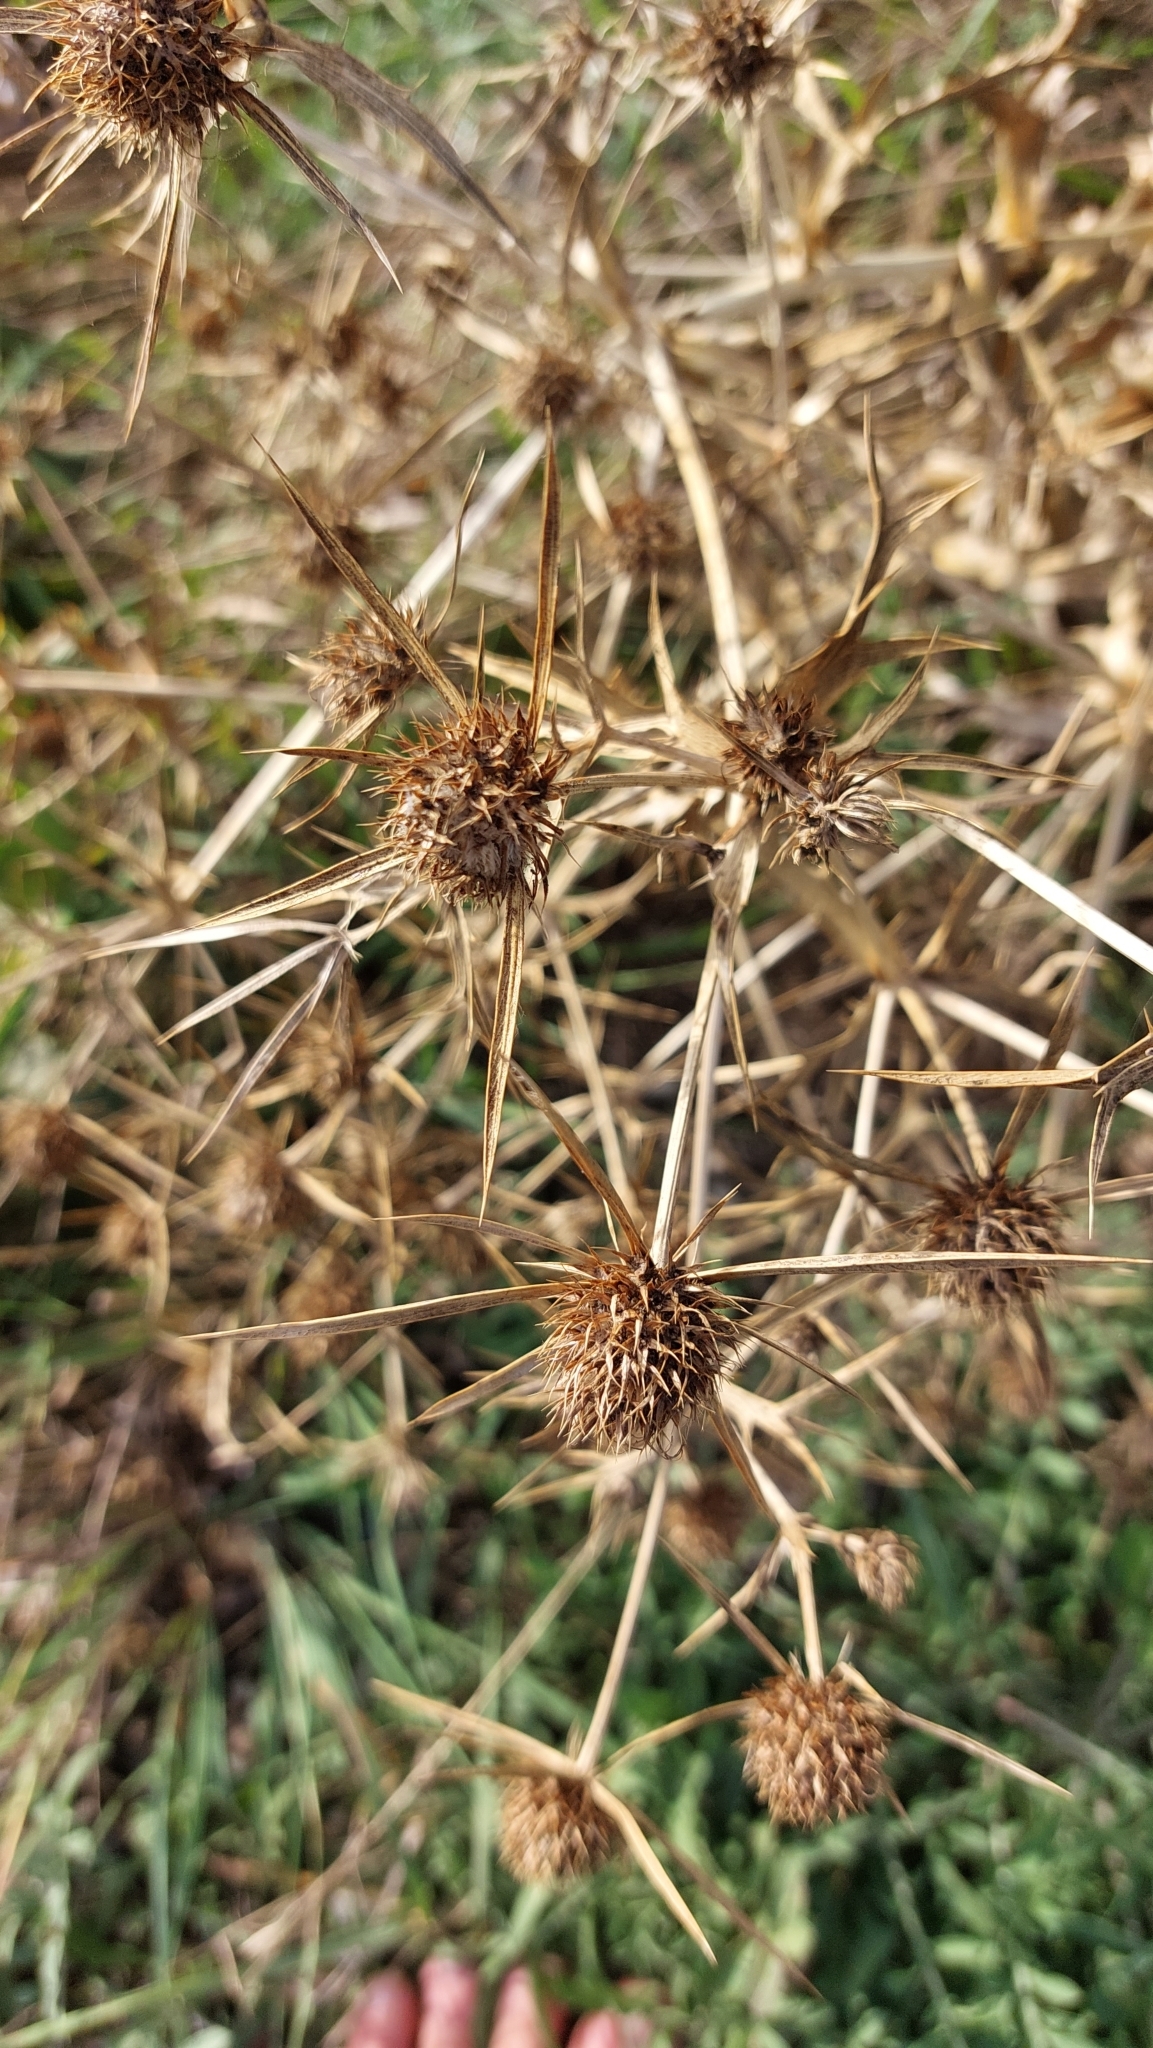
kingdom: Plantae
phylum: Tracheophyta
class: Magnoliopsida
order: Apiales
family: Apiaceae
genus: Eryngium
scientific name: Eryngium campestre
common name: Field eryngo
